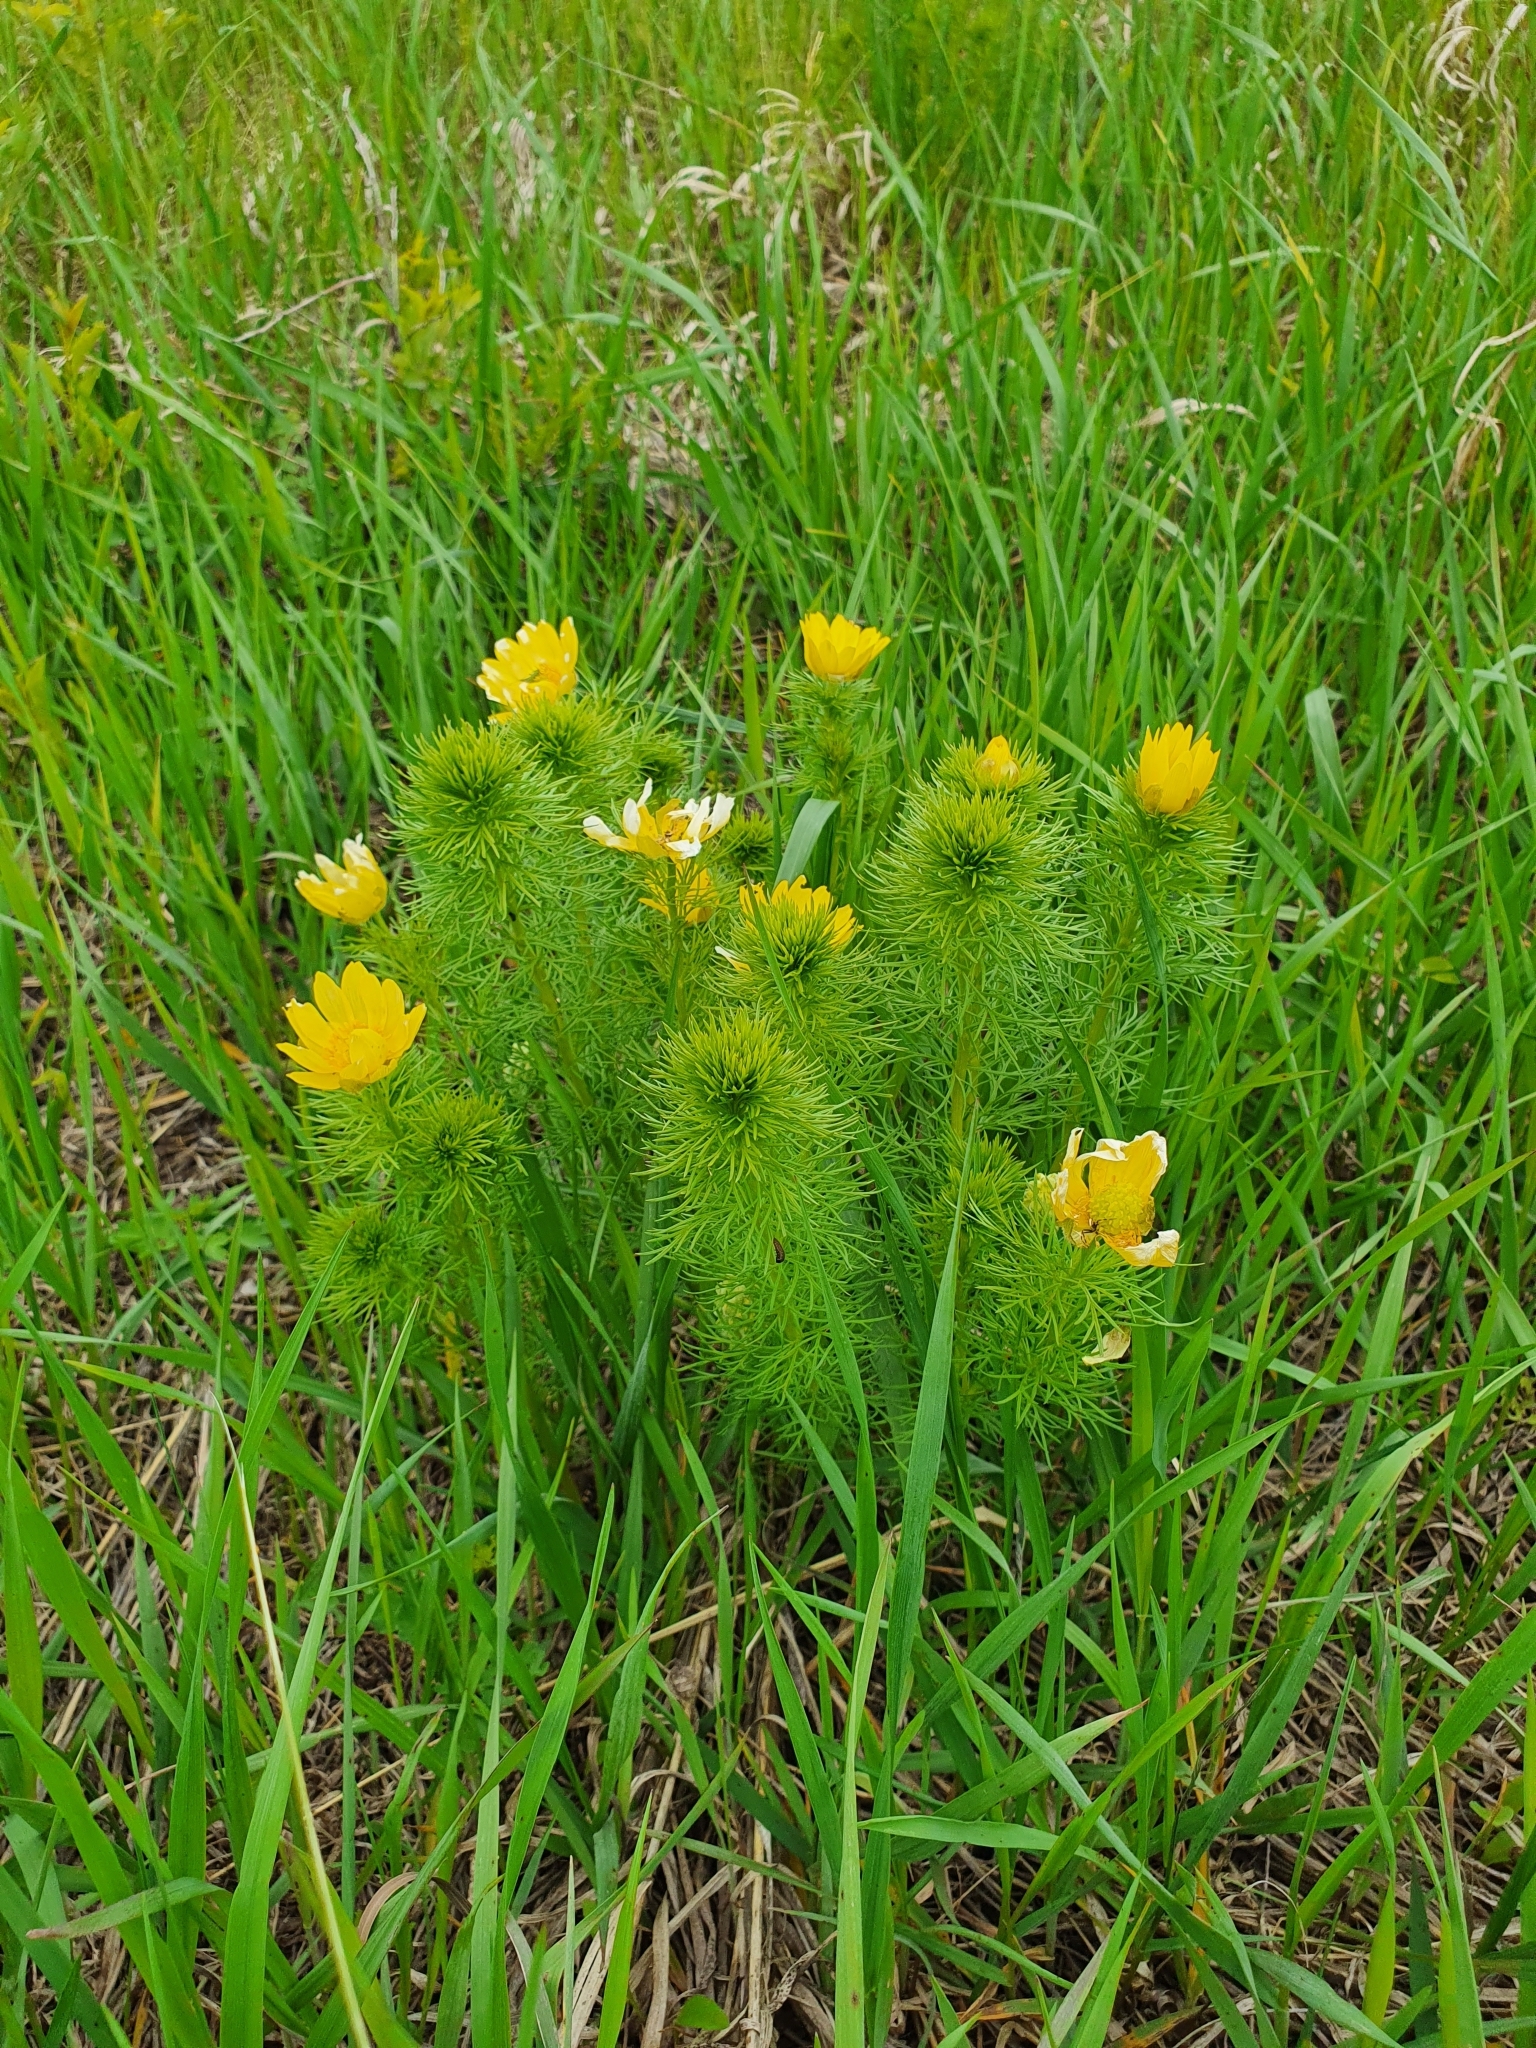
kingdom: Plantae
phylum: Tracheophyta
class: Magnoliopsida
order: Ranunculales
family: Ranunculaceae
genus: Adonis
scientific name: Adonis vernalis
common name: Yellow pheasants-eye
